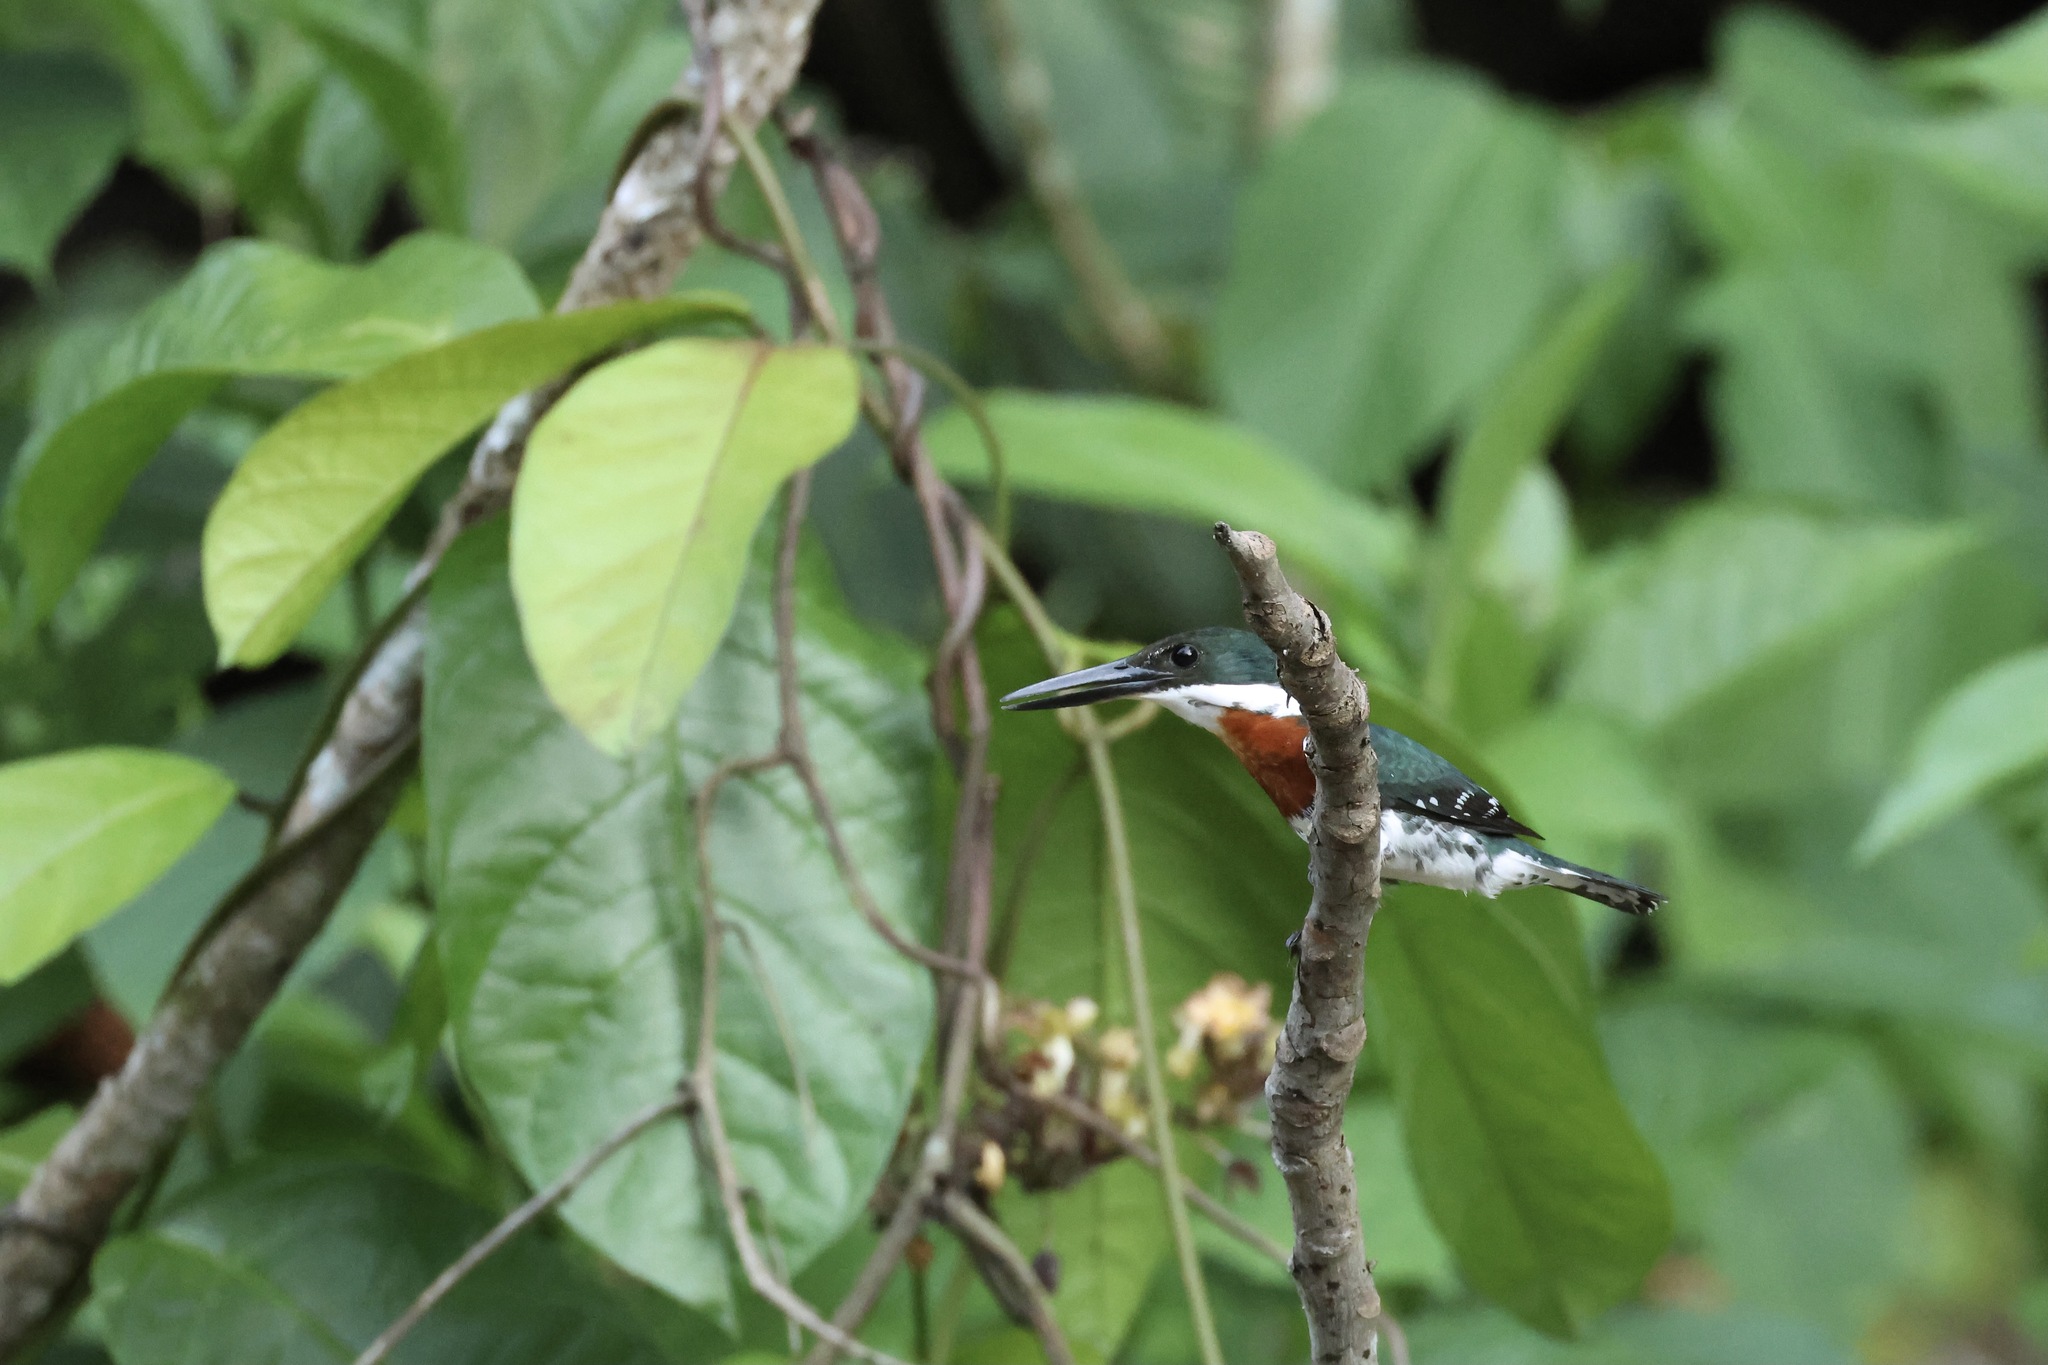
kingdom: Animalia
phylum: Chordata
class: Aves
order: Coraciiformes
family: Alcedinidae
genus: Chloroceryle
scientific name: Chloroceryle americana
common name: Green kingfisher
